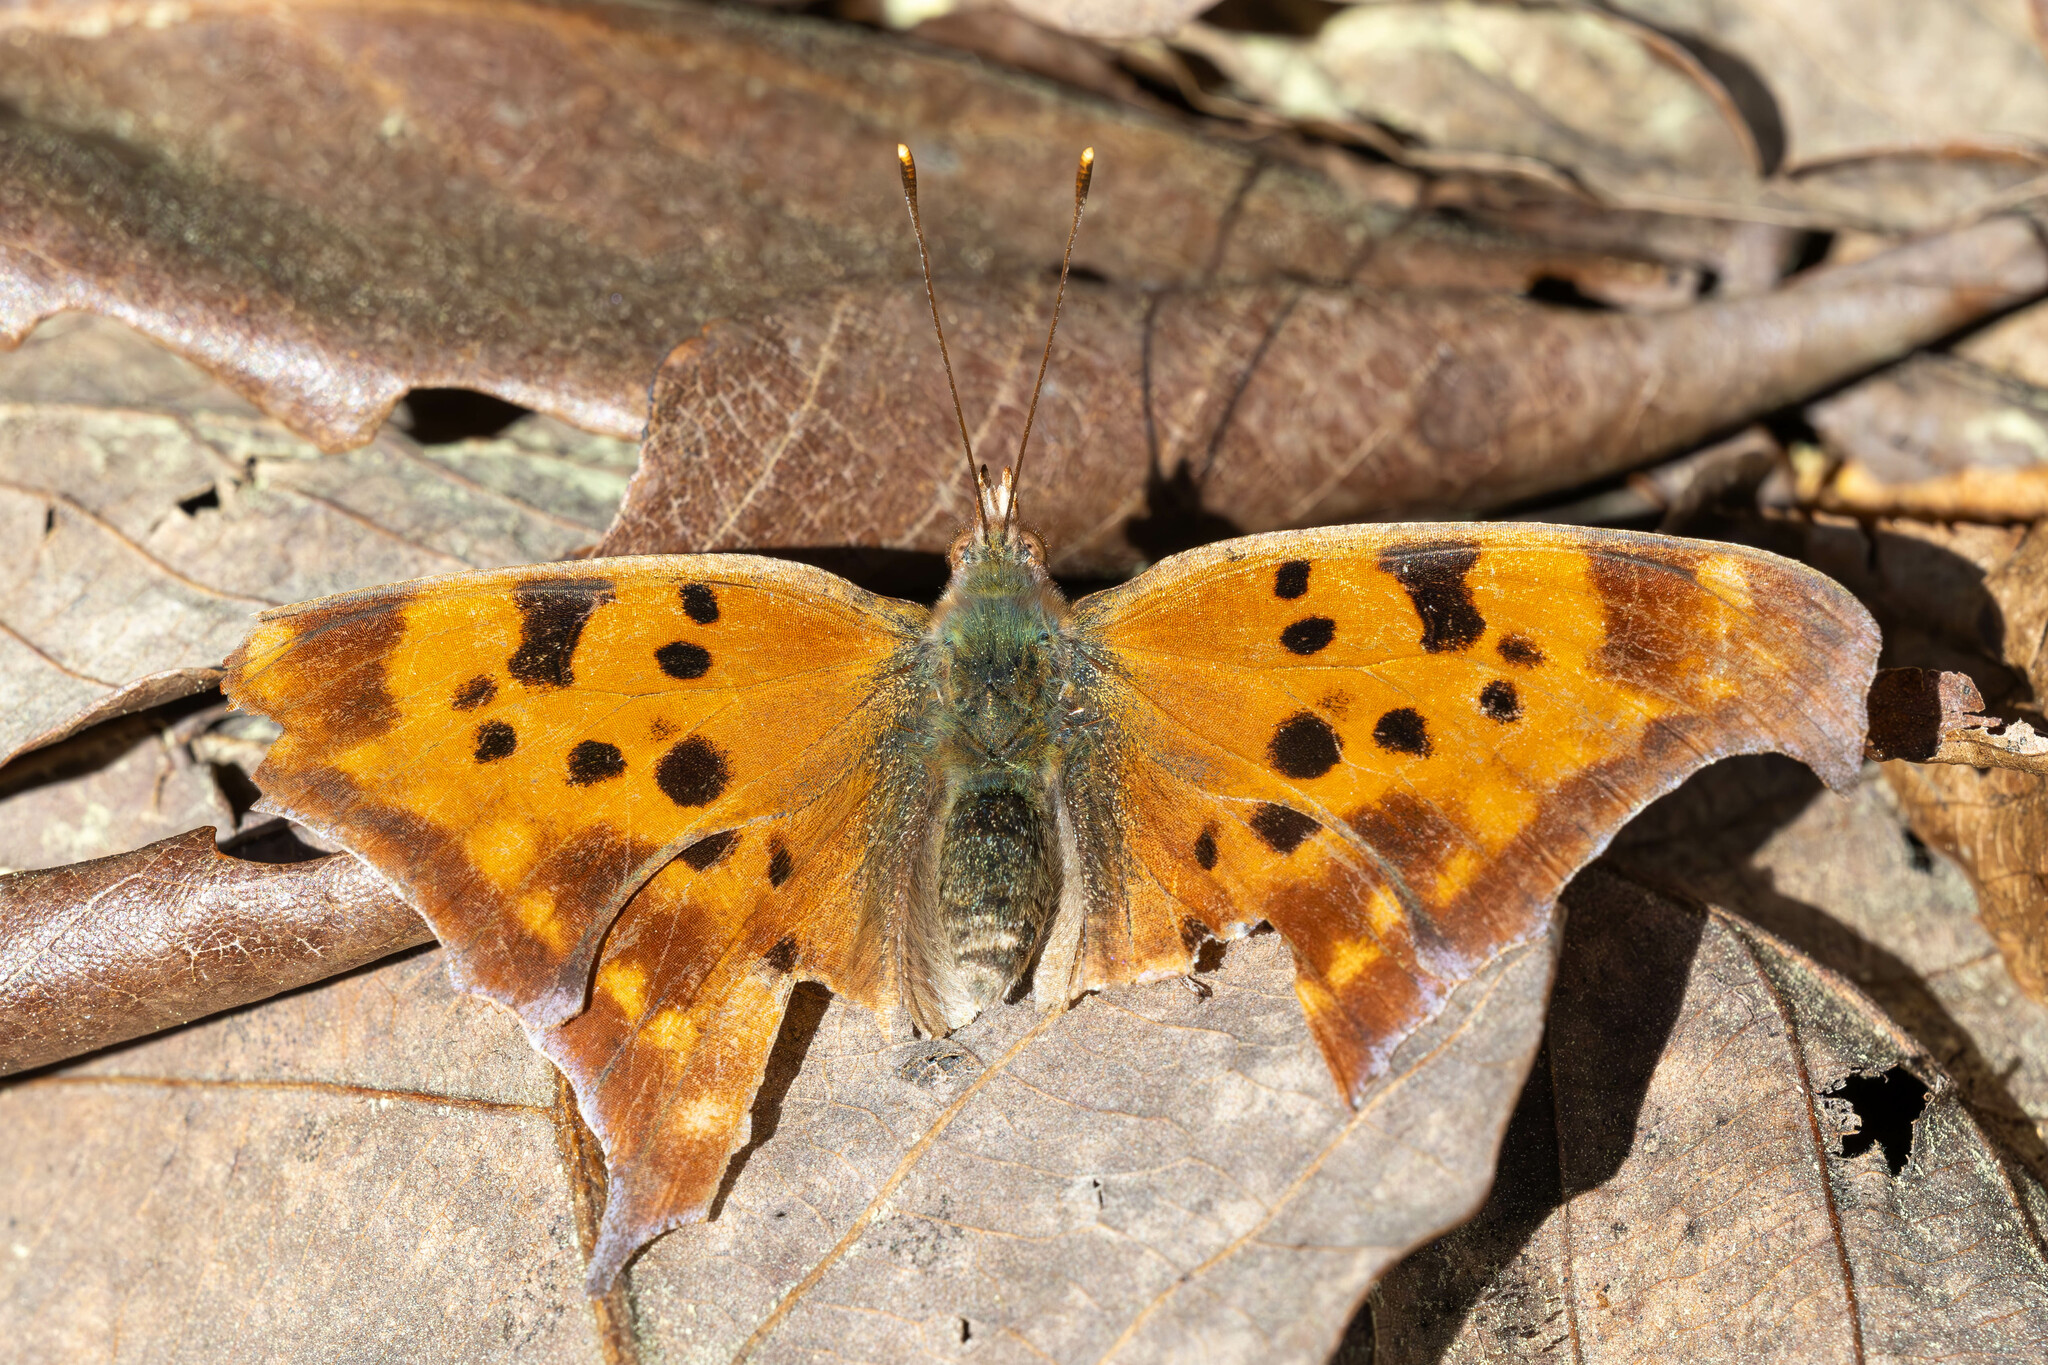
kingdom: Animalia
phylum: Arthropoda
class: Insecta
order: Lepidoptera
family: Nymphalidae
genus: Polygonia
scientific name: Polygonia interrogationis
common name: Question mark
